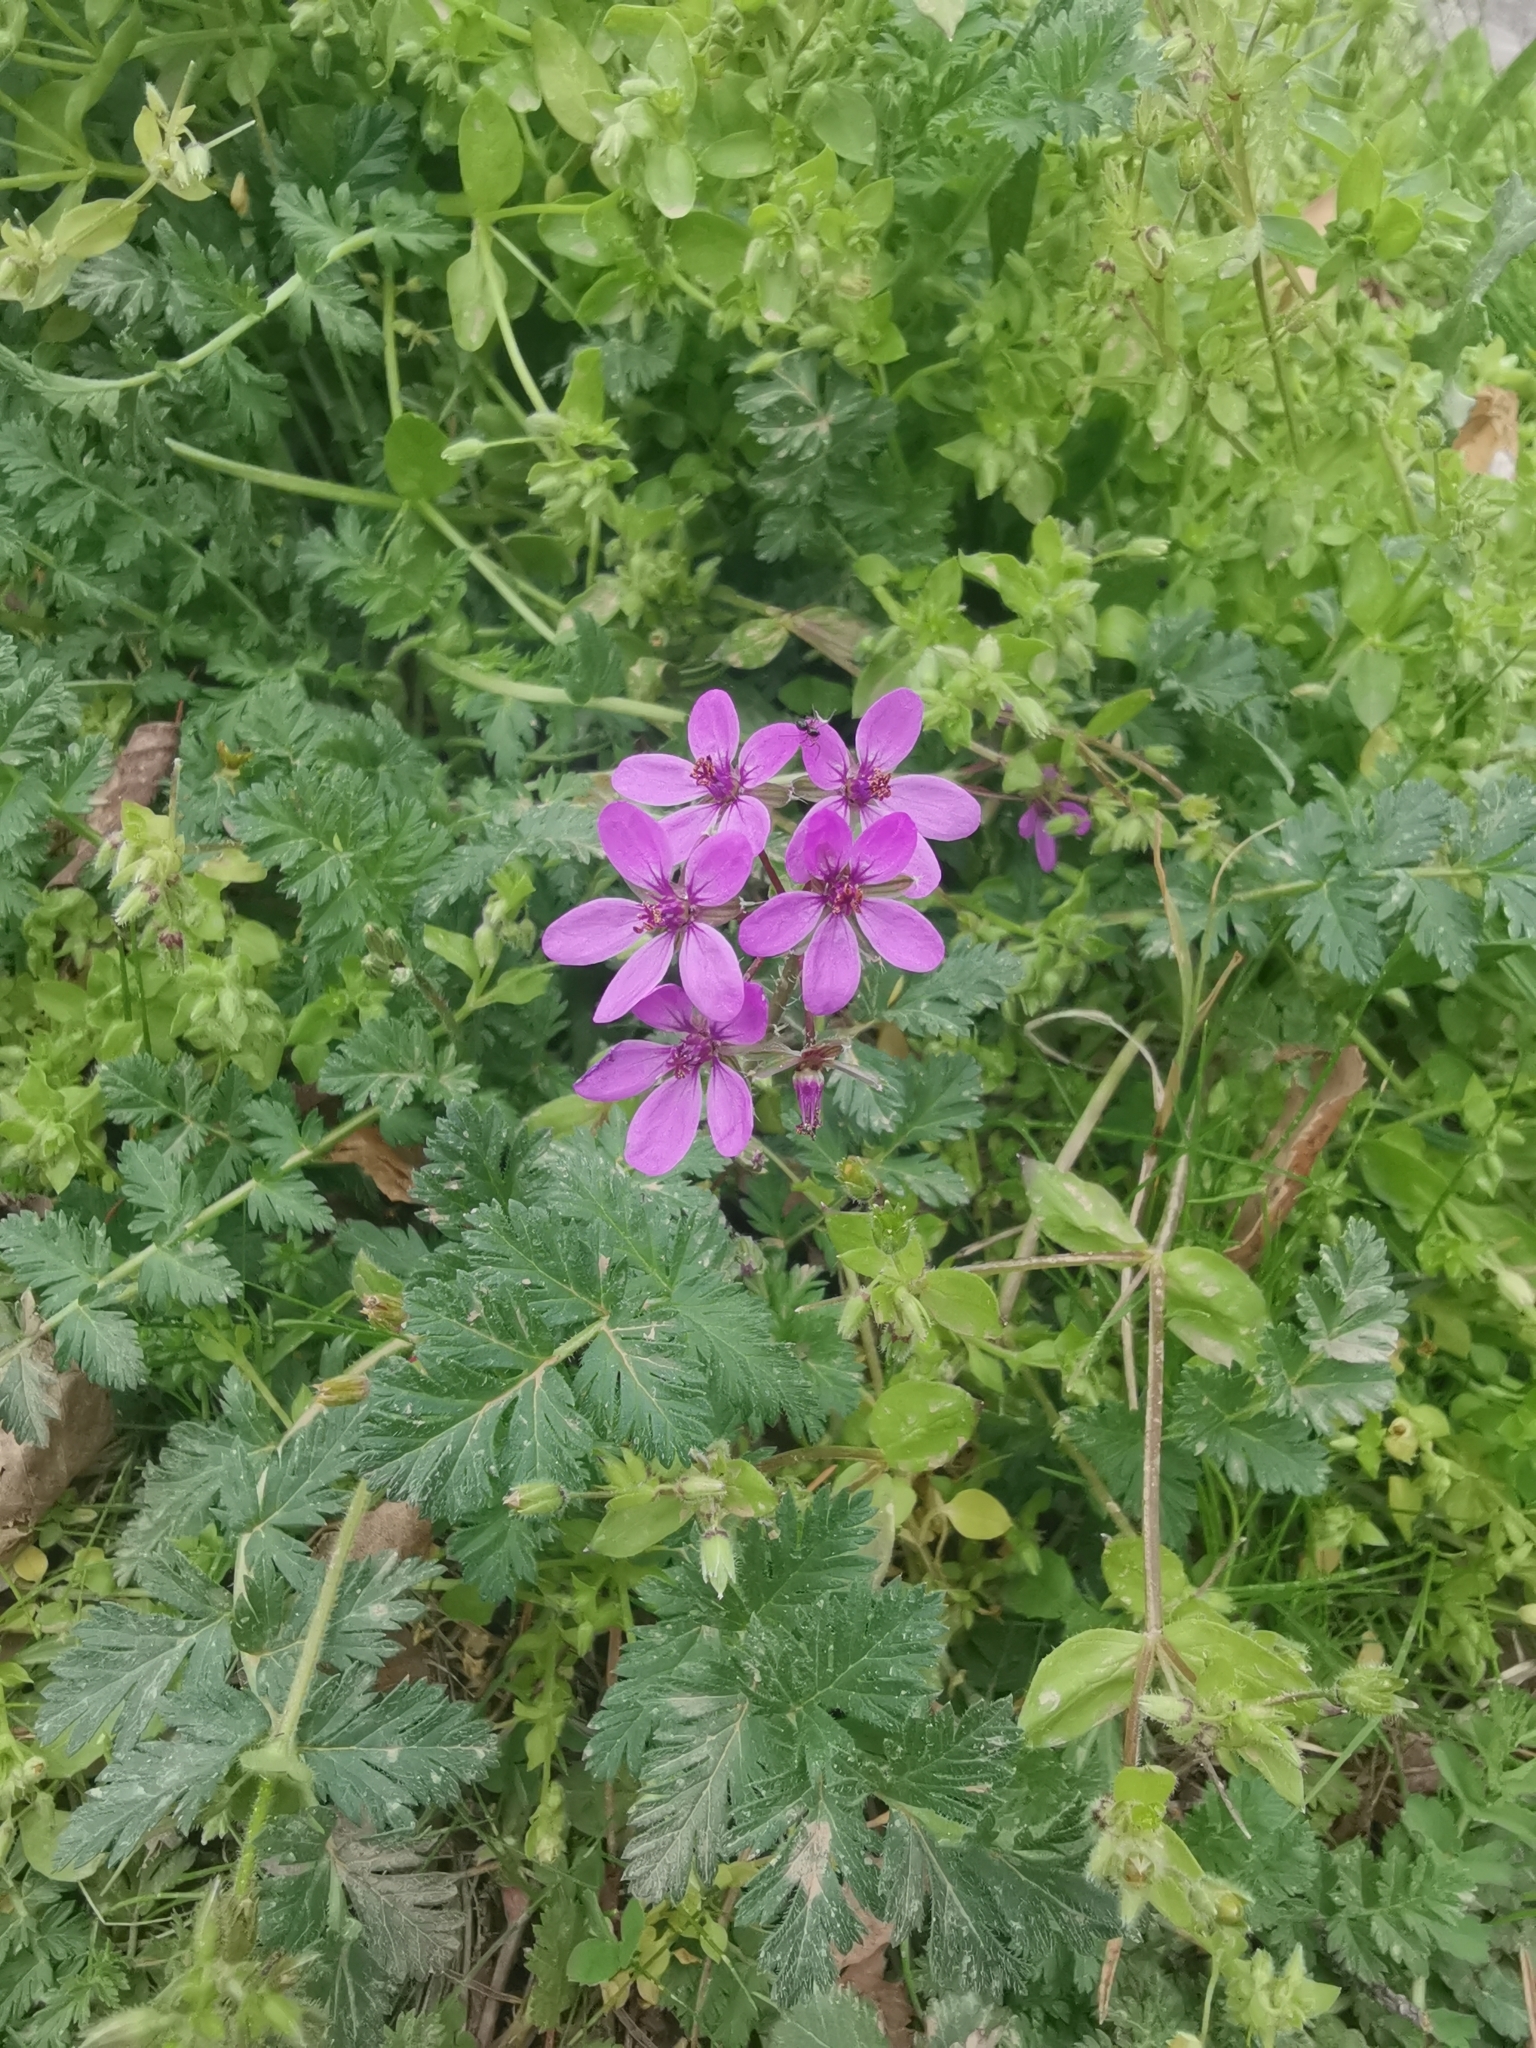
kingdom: Plantae
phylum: Tracheophyta
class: Magnoliopsida
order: Geraniales
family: Geraniaceae
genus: Erodium
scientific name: Erodium cicutarium
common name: Common stork's-bill
